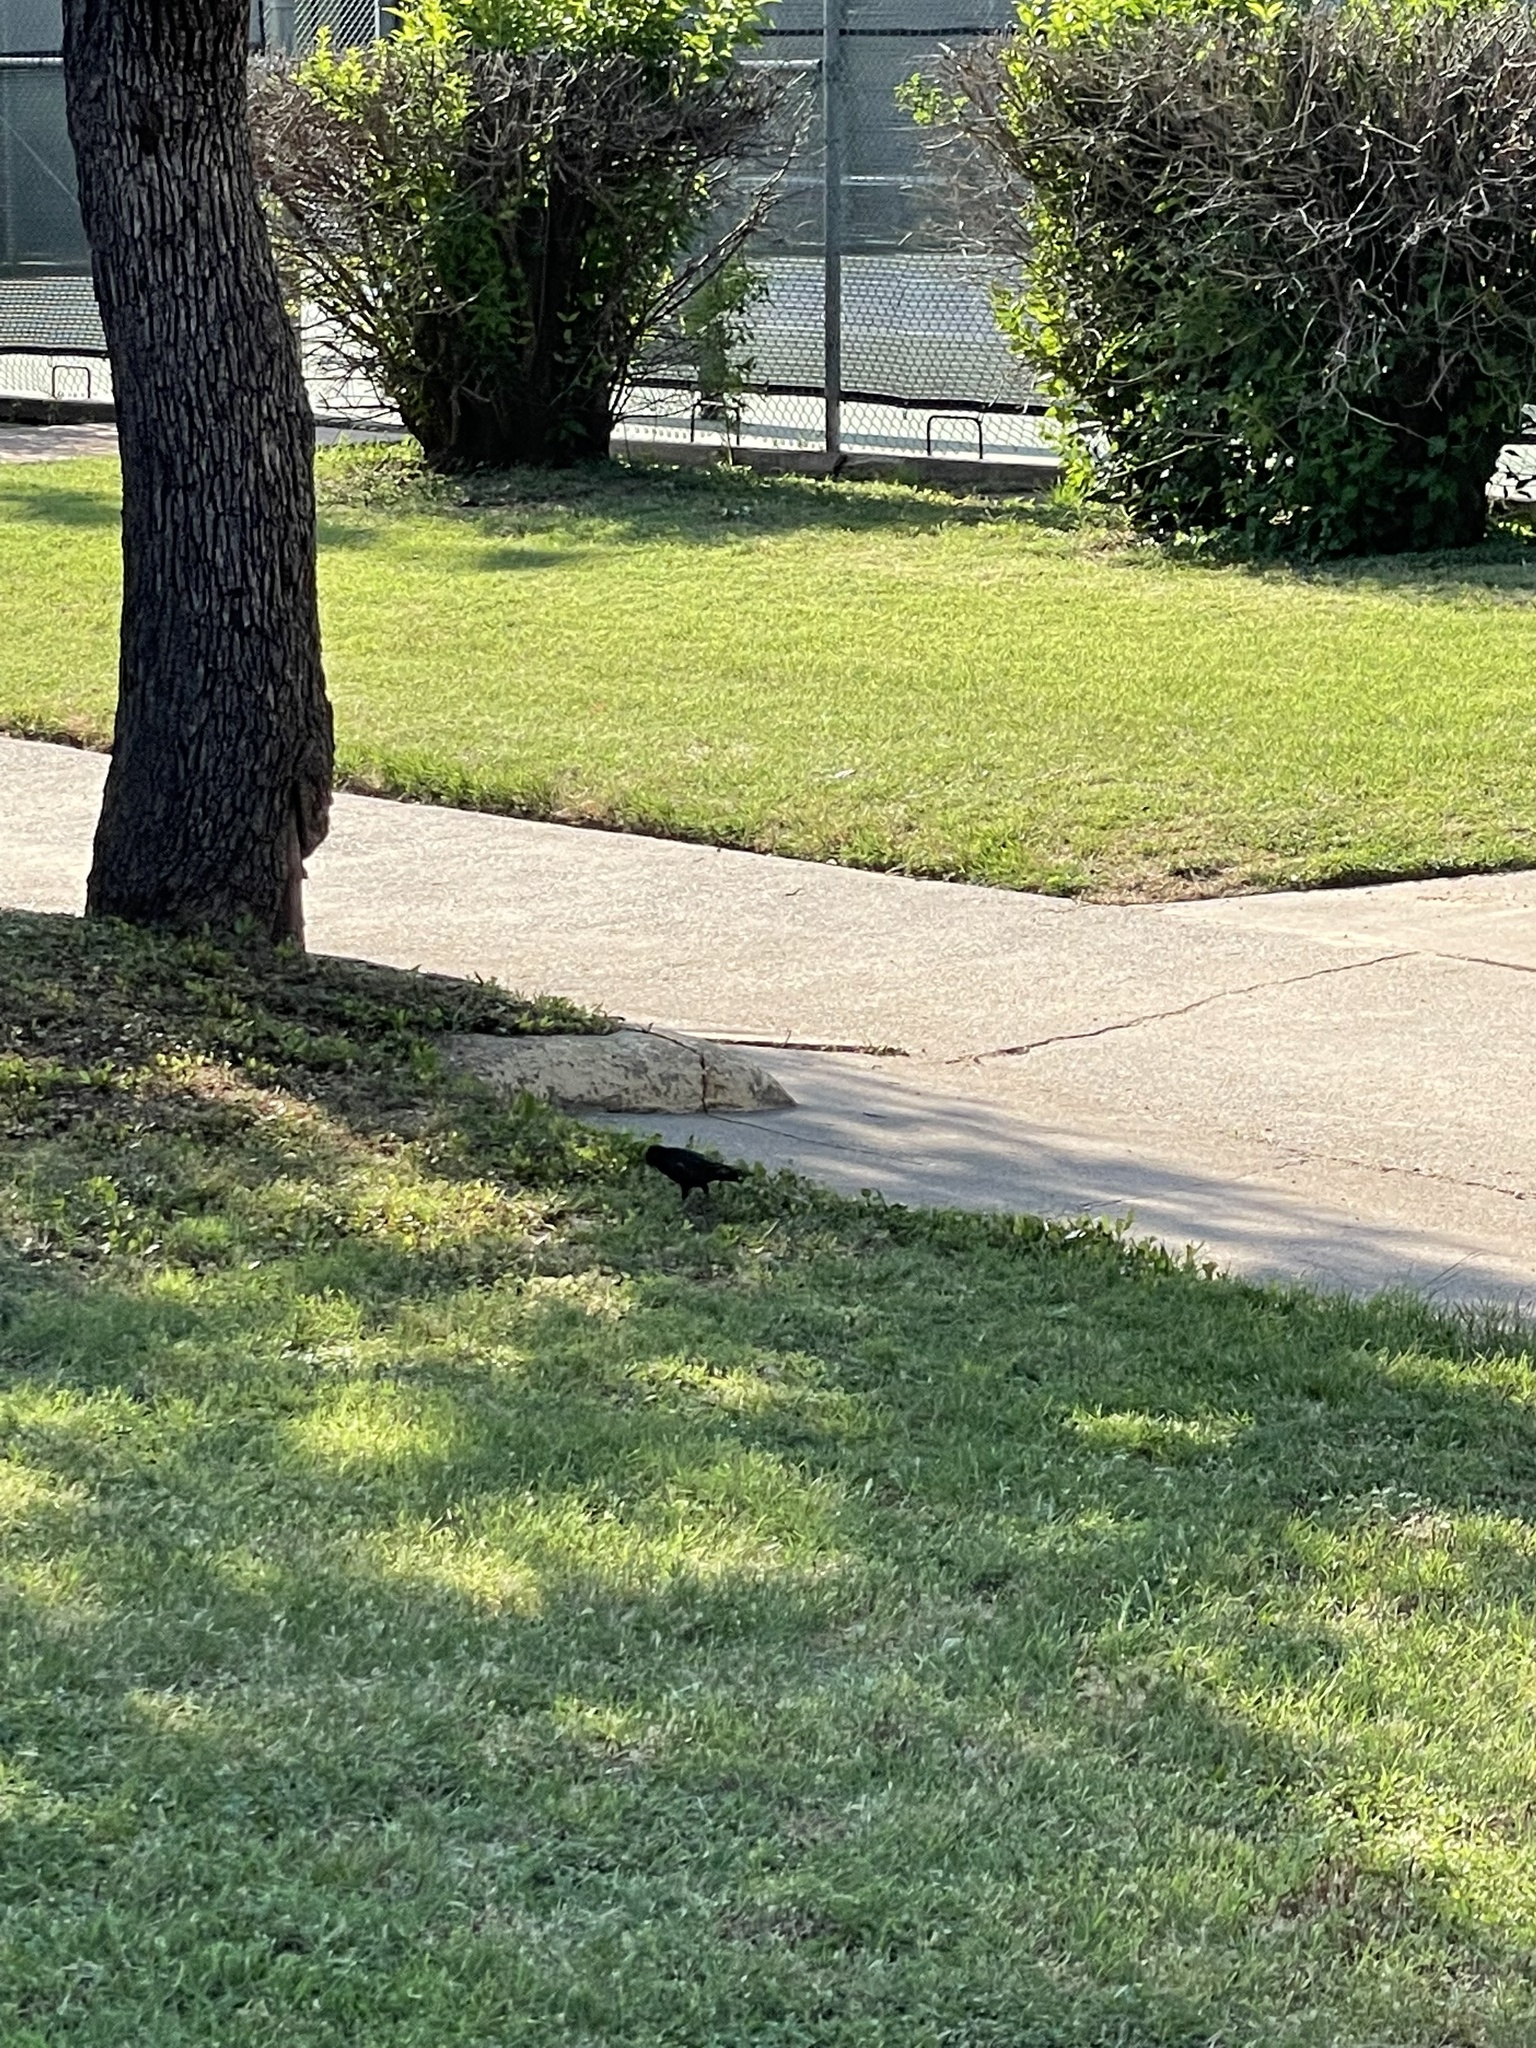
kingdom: Animalia
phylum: Chordata
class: Aves
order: Passeriformes
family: Sturnidae
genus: Sturnus
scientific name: Sturnus vulgaris
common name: Common starling
